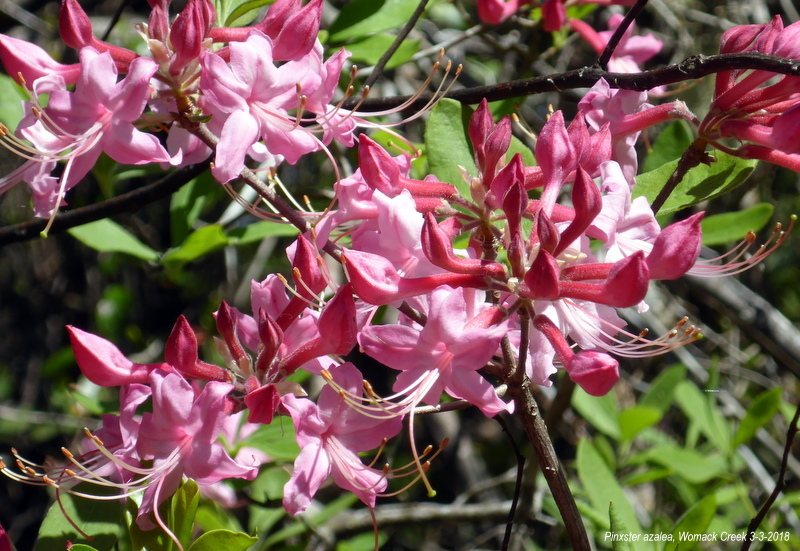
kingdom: Plantae
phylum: Tracheophyta
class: Magnoliopsida
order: Ericales
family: Ericaceae
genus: Rhododendron
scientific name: Rhododendron canescens
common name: Mountain azalea
